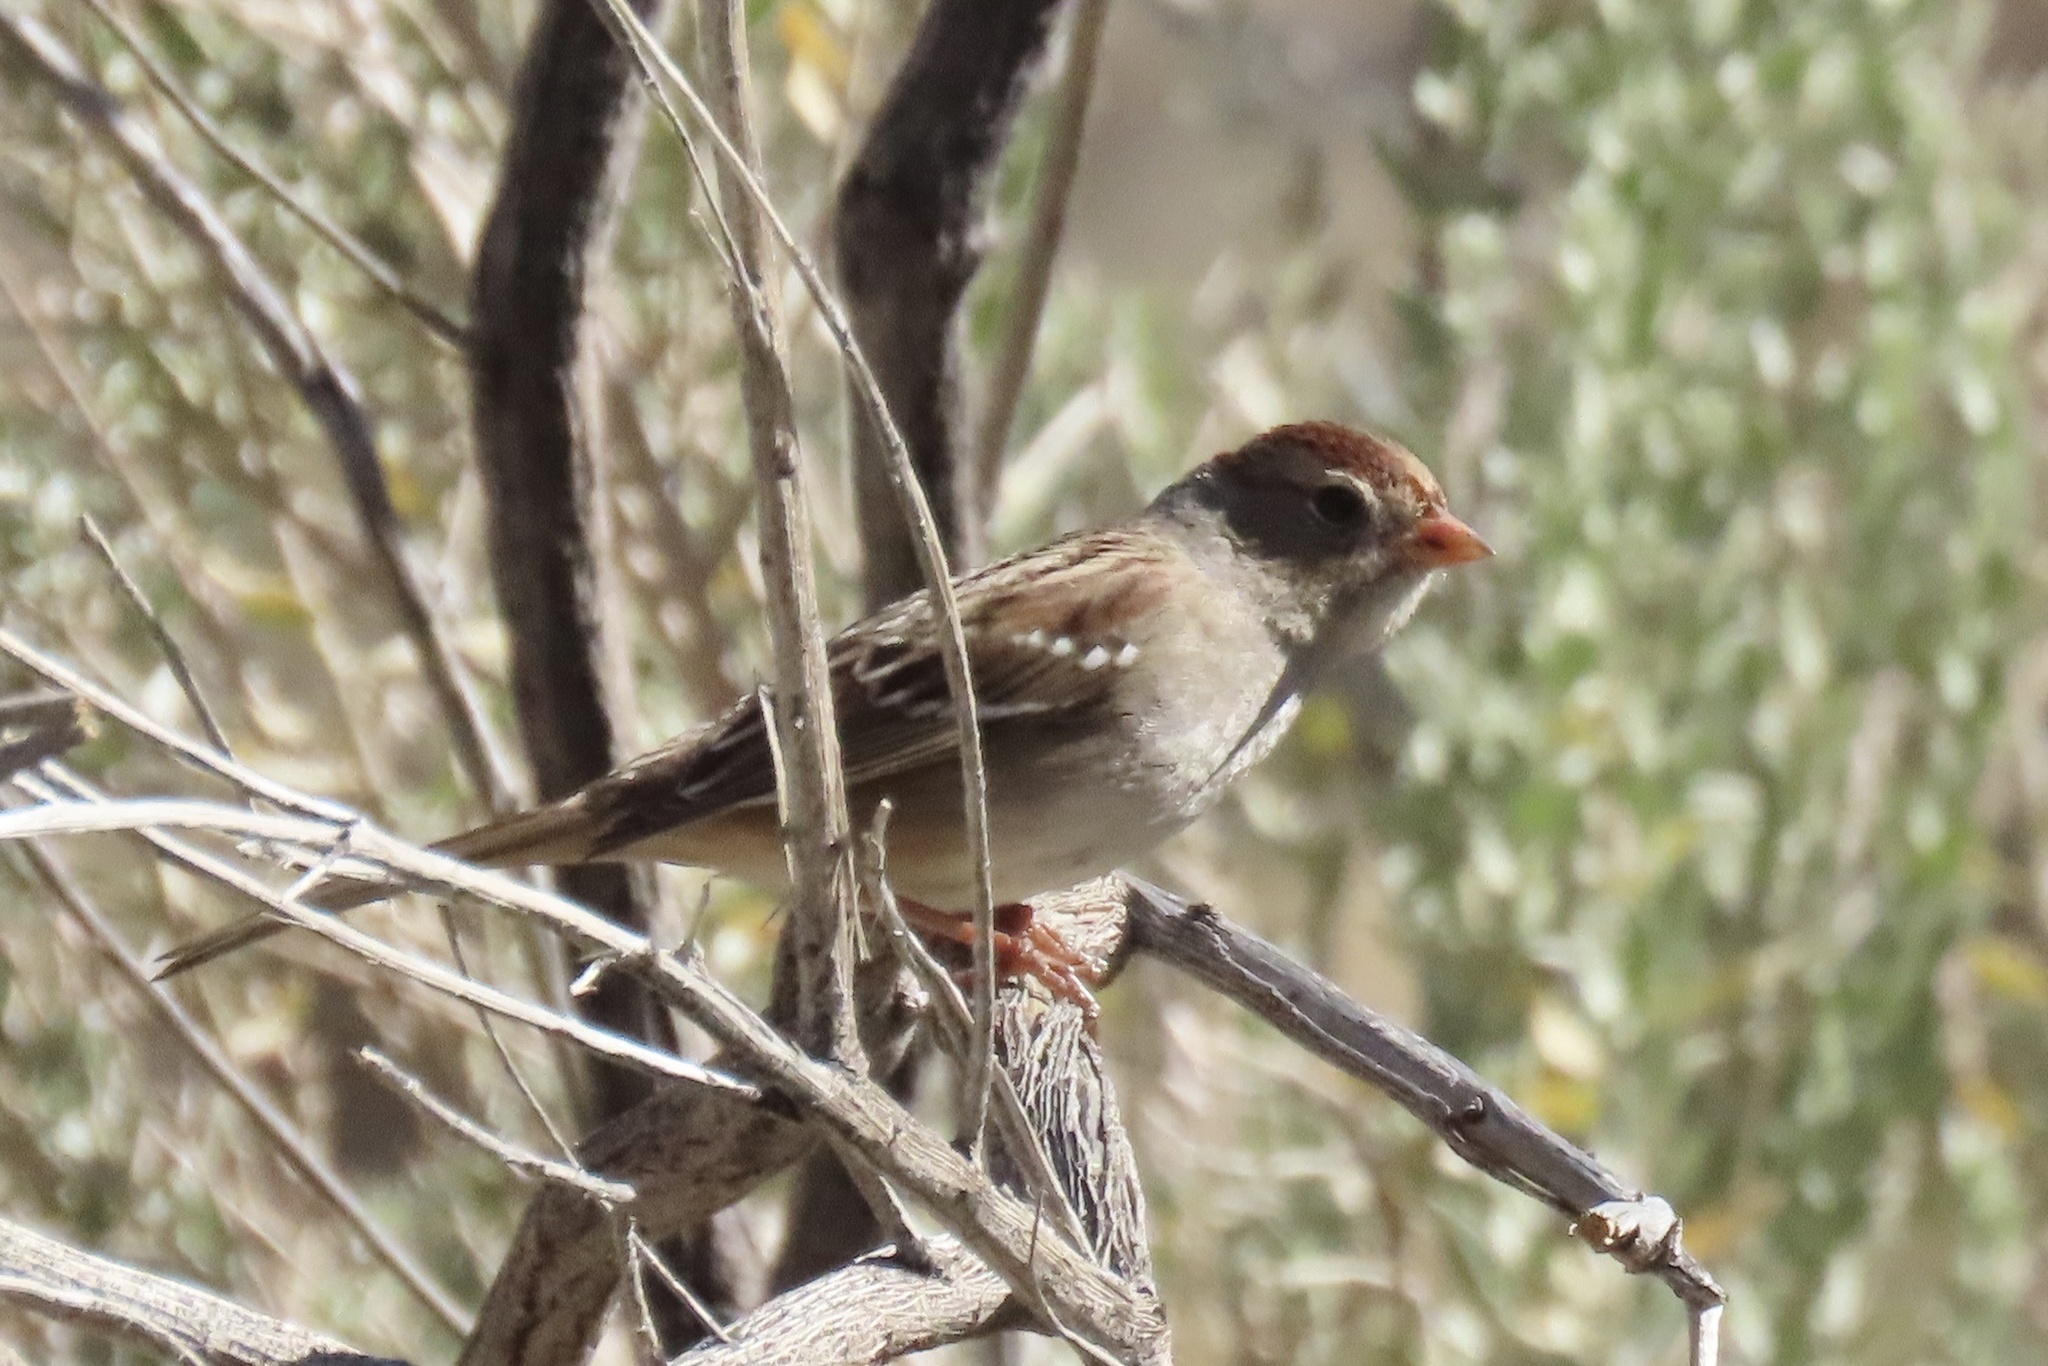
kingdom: Animalia
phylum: Chordata
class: Aves
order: Passeriformes
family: Passerellidae
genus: Zonotrichia
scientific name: Zonotrichia leucophrys
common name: White-crowned sparrow
